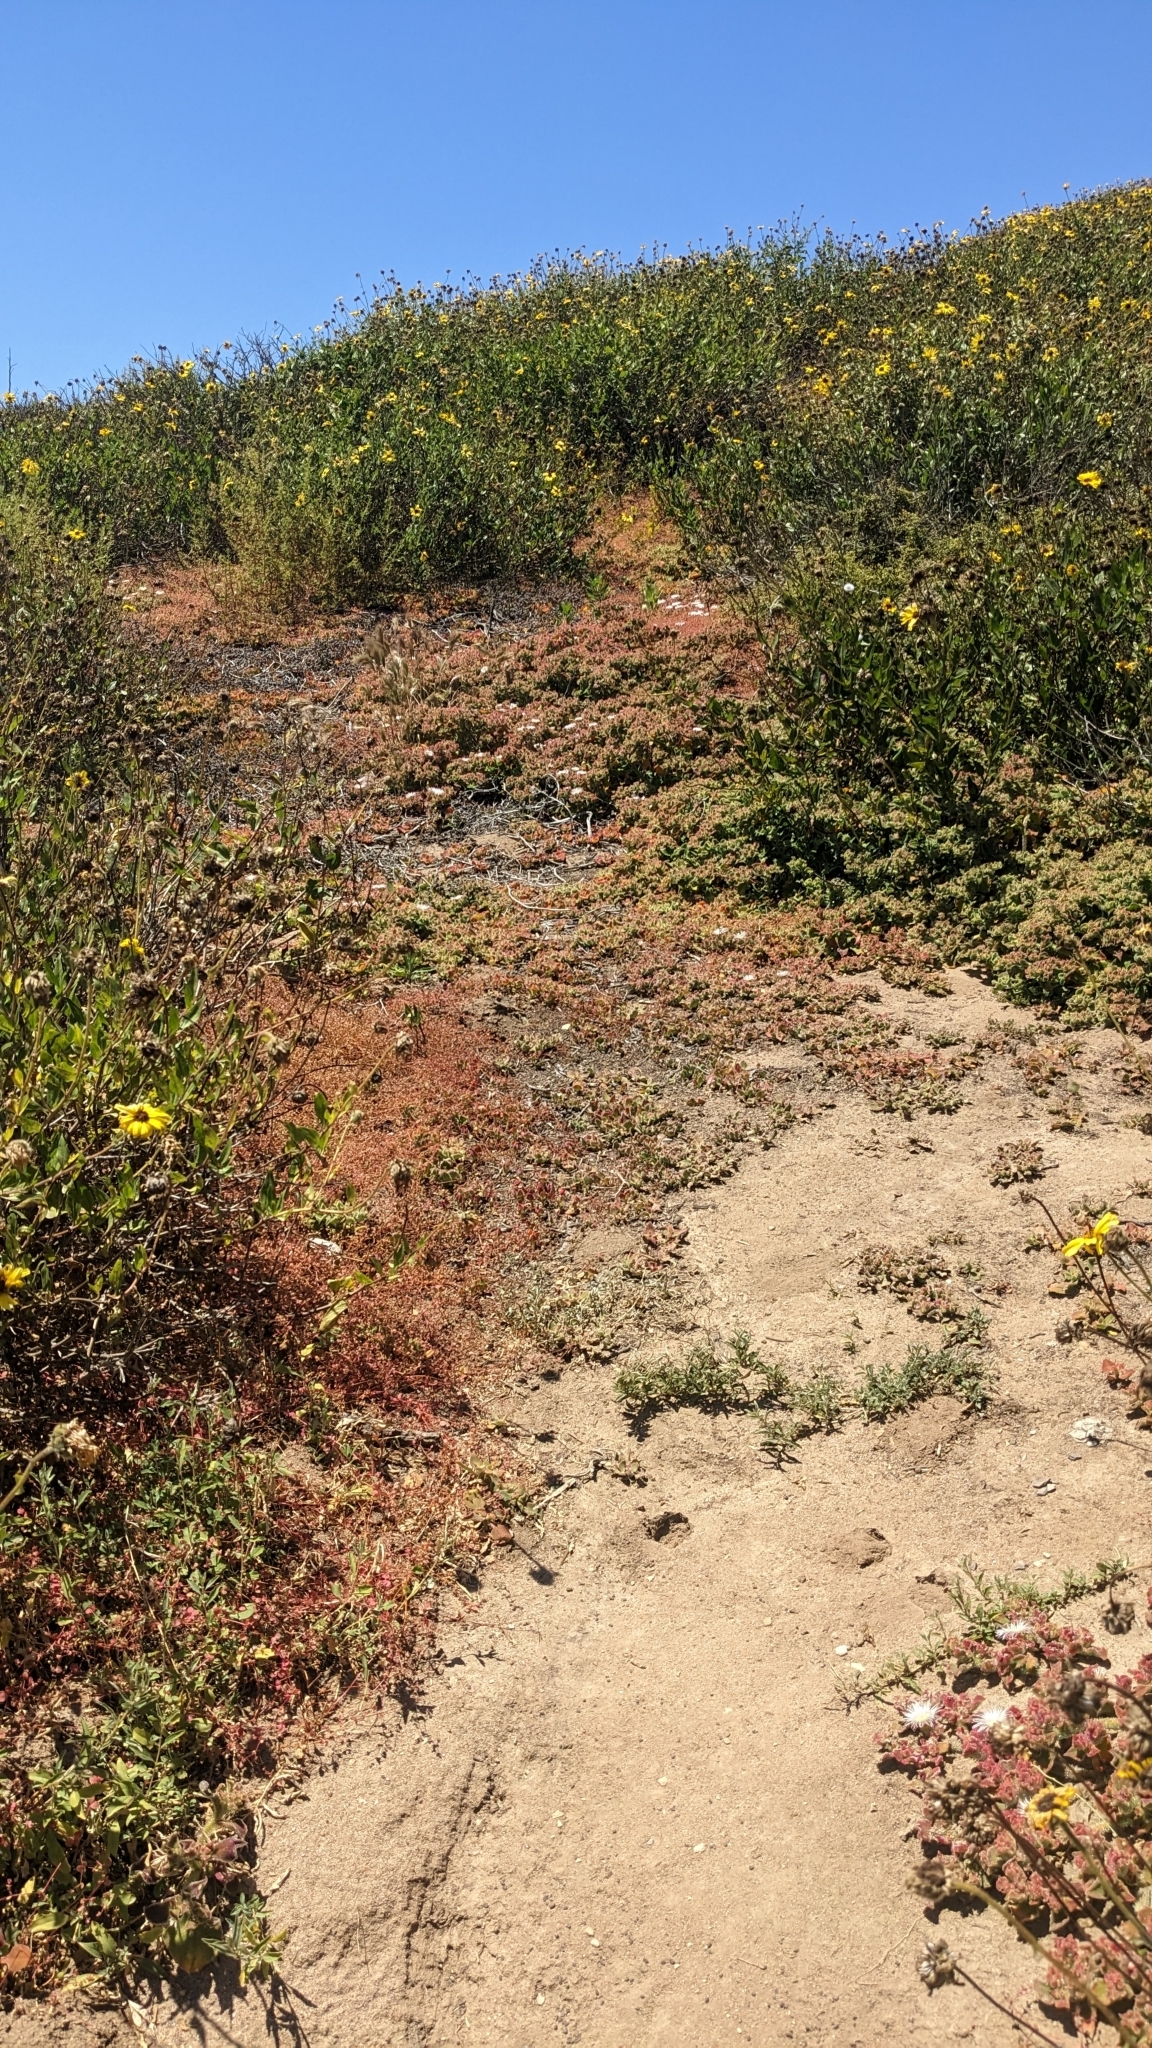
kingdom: Plantae
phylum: Tracheophyta
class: Magnoliopsida
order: Caryophyllales
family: Polygonaceae
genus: Pterostegia
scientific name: Pterostegia drymarioides
